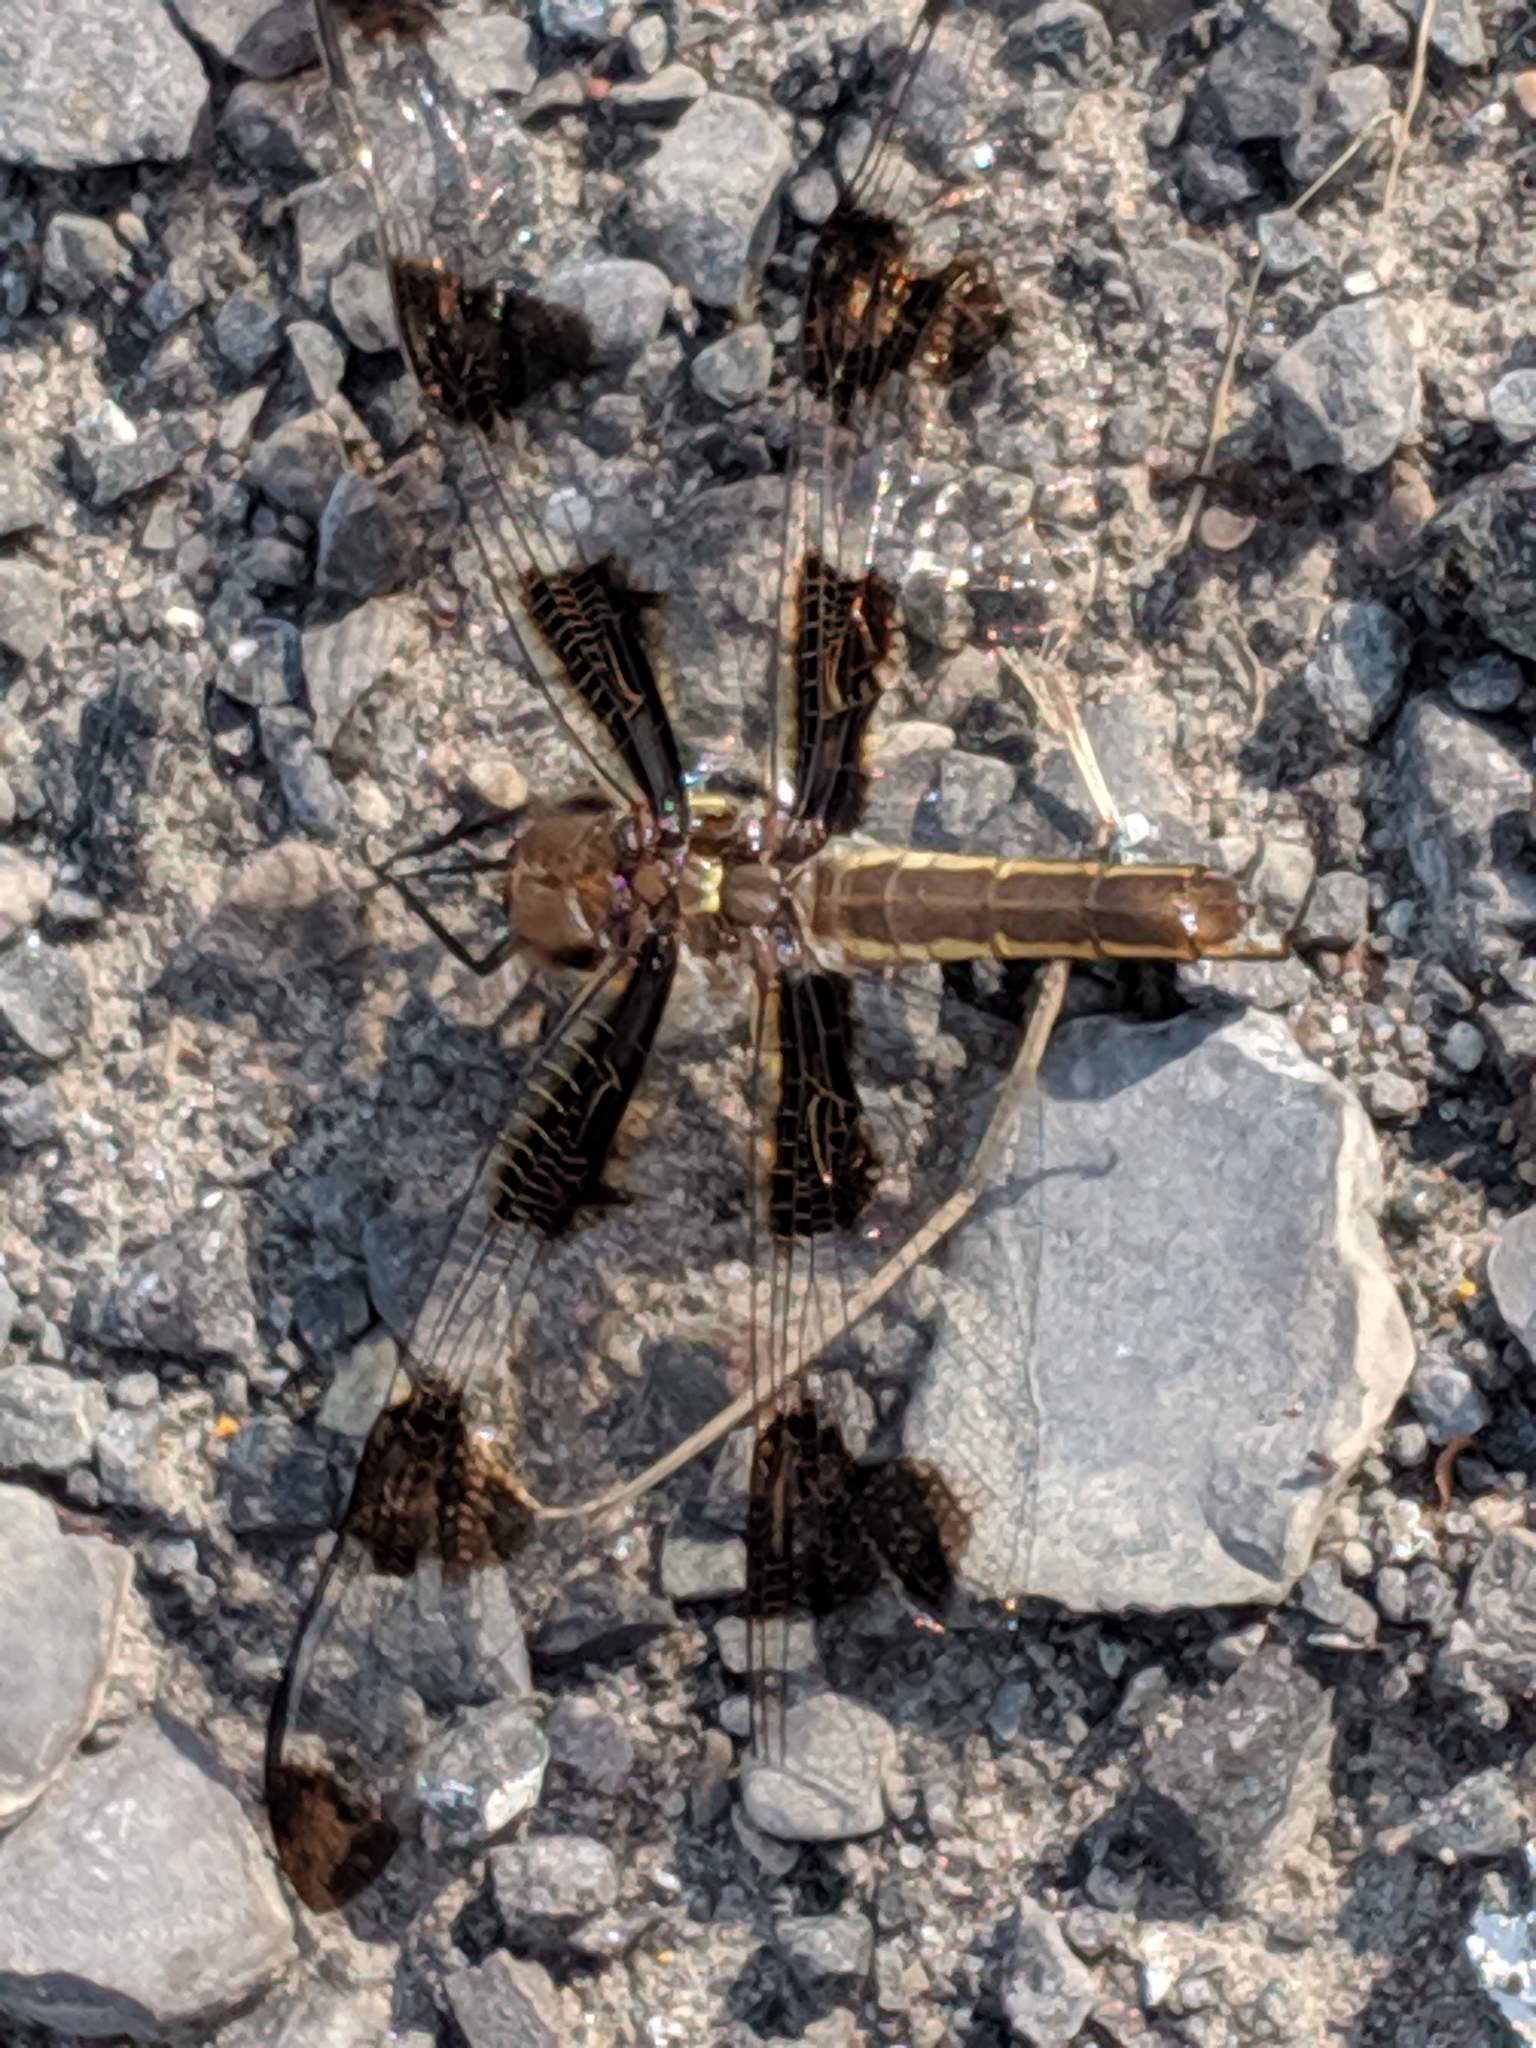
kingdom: Animalia
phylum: Arthropoda
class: Insecta
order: Odonata
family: Libellulidae
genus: Libellula
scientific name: Libellula pulchella
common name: Twelve-spotted skimmer
